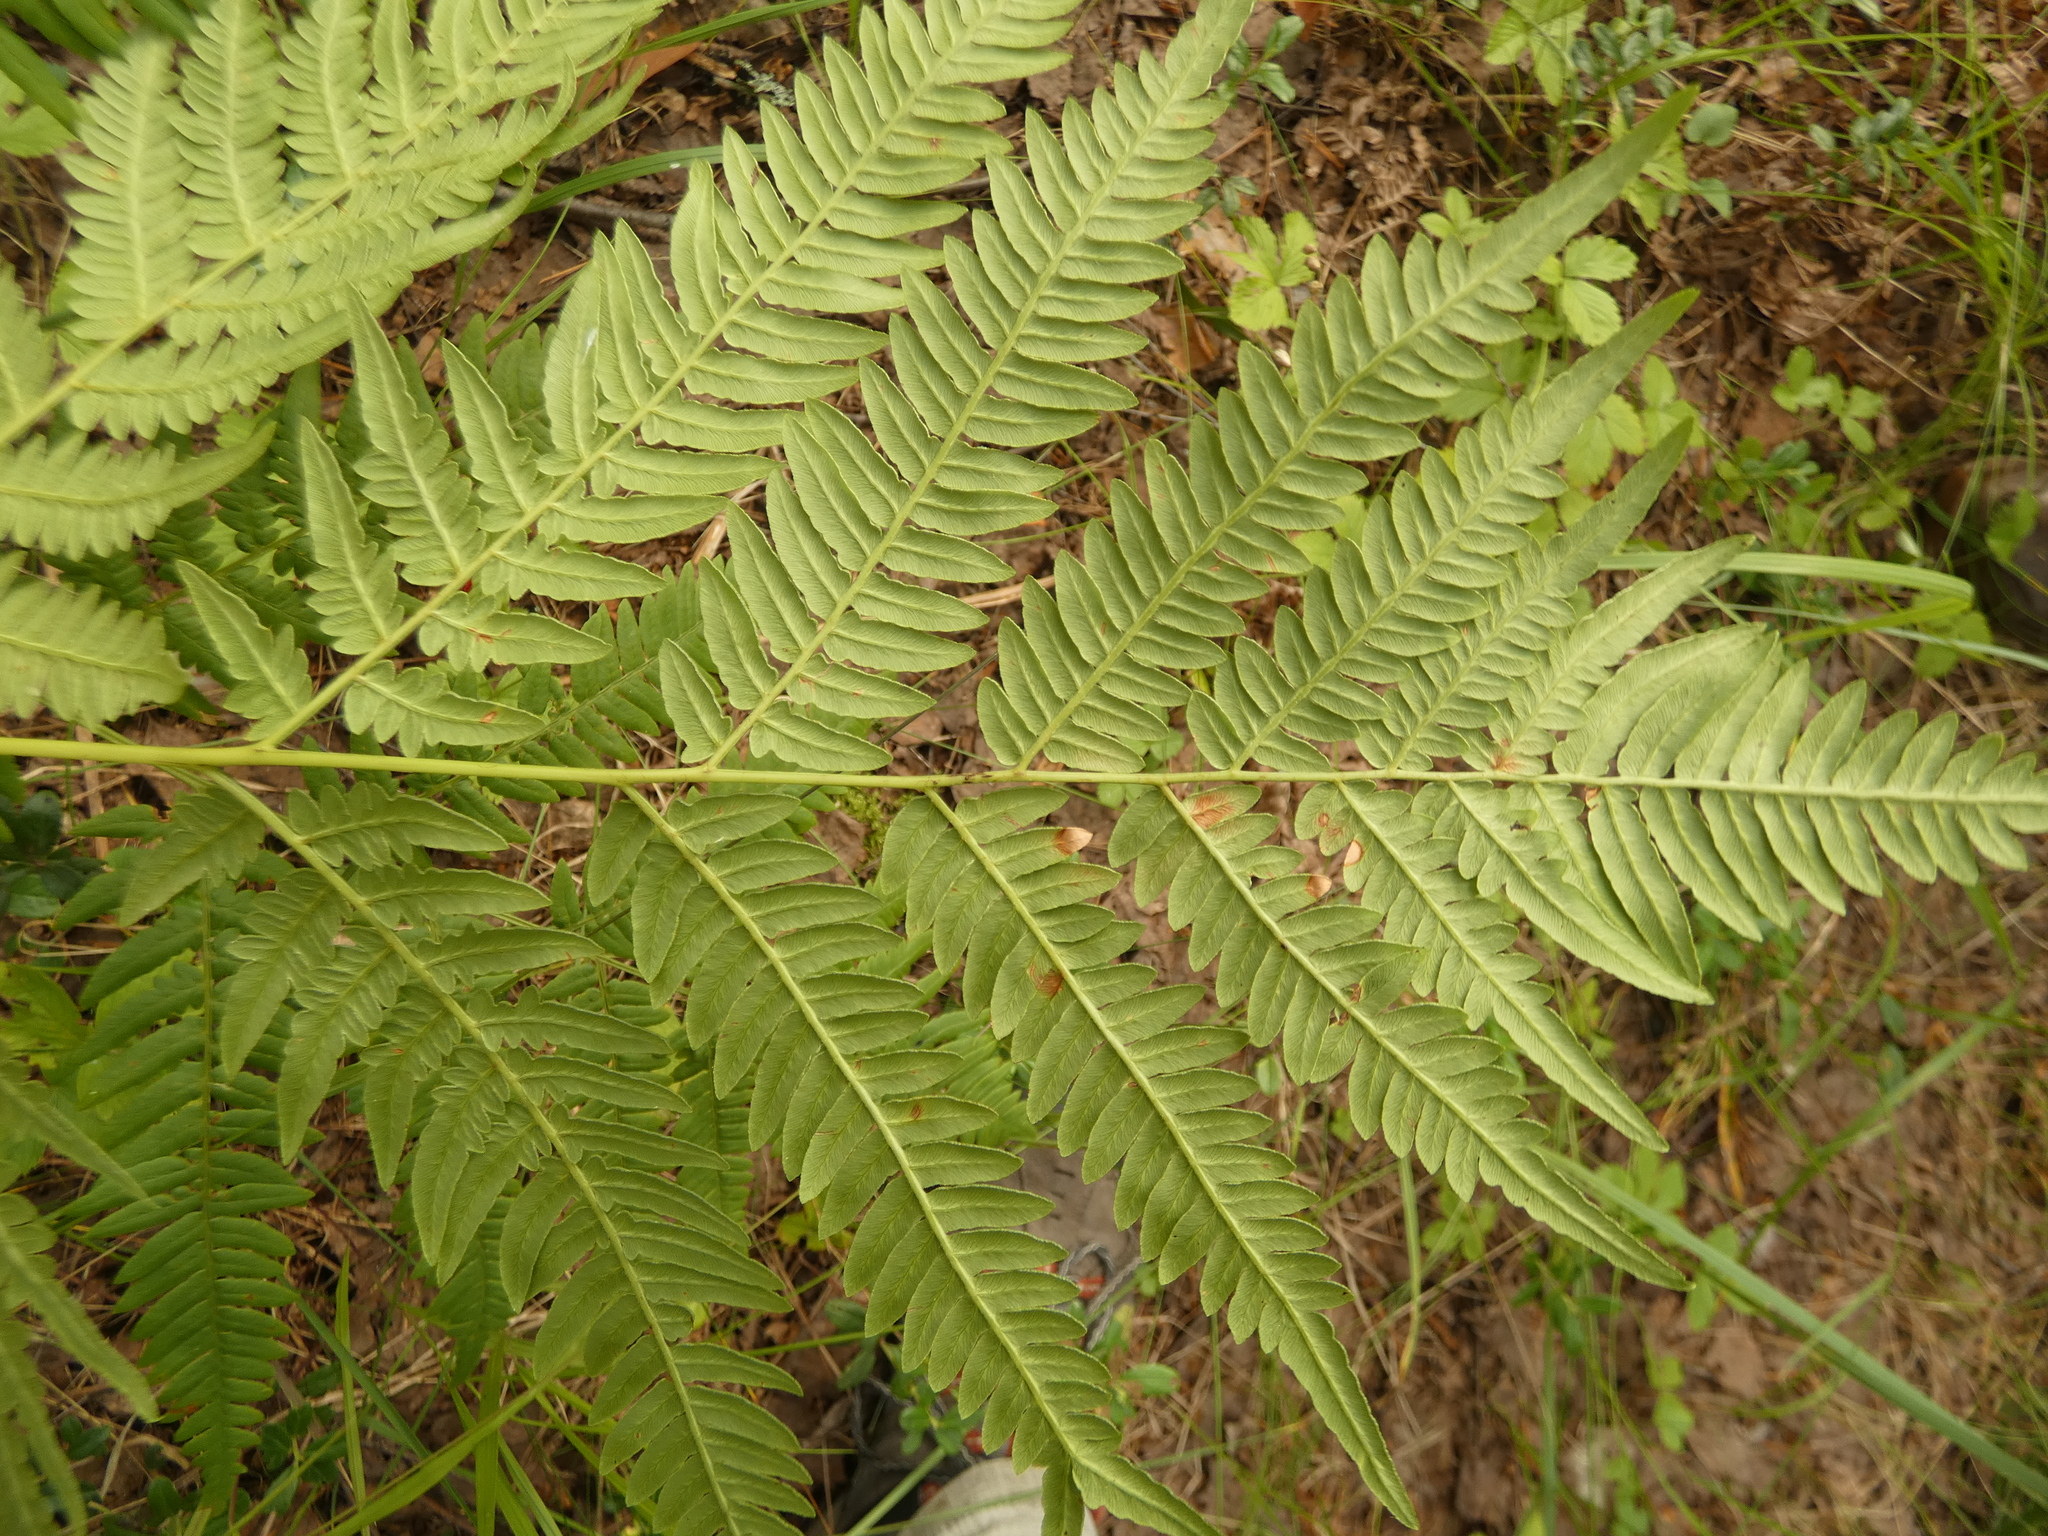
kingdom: Plantae
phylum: Tracheophyta
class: Polypodiopsida
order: Polypodiales
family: Dennstaedtiaceae
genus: Pteridium
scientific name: Pteridium aquilinum
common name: Bracken
